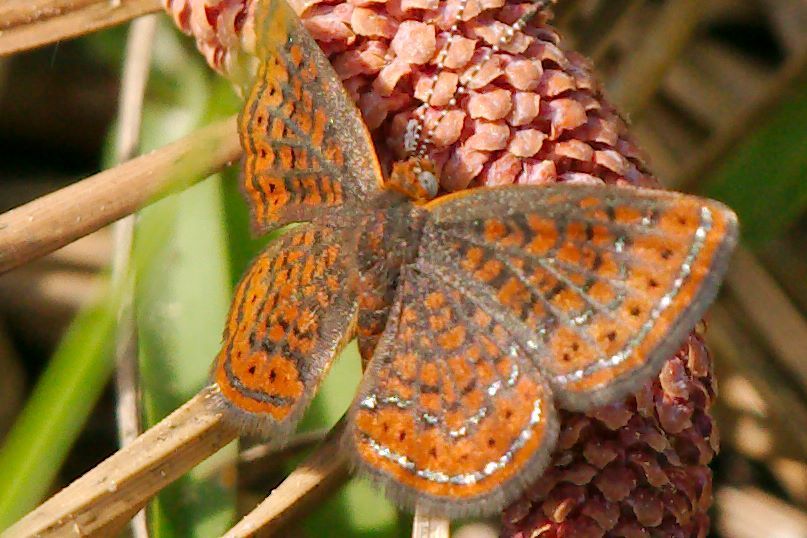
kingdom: Animalia
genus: Calephelis
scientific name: Calephelis virginiensis
